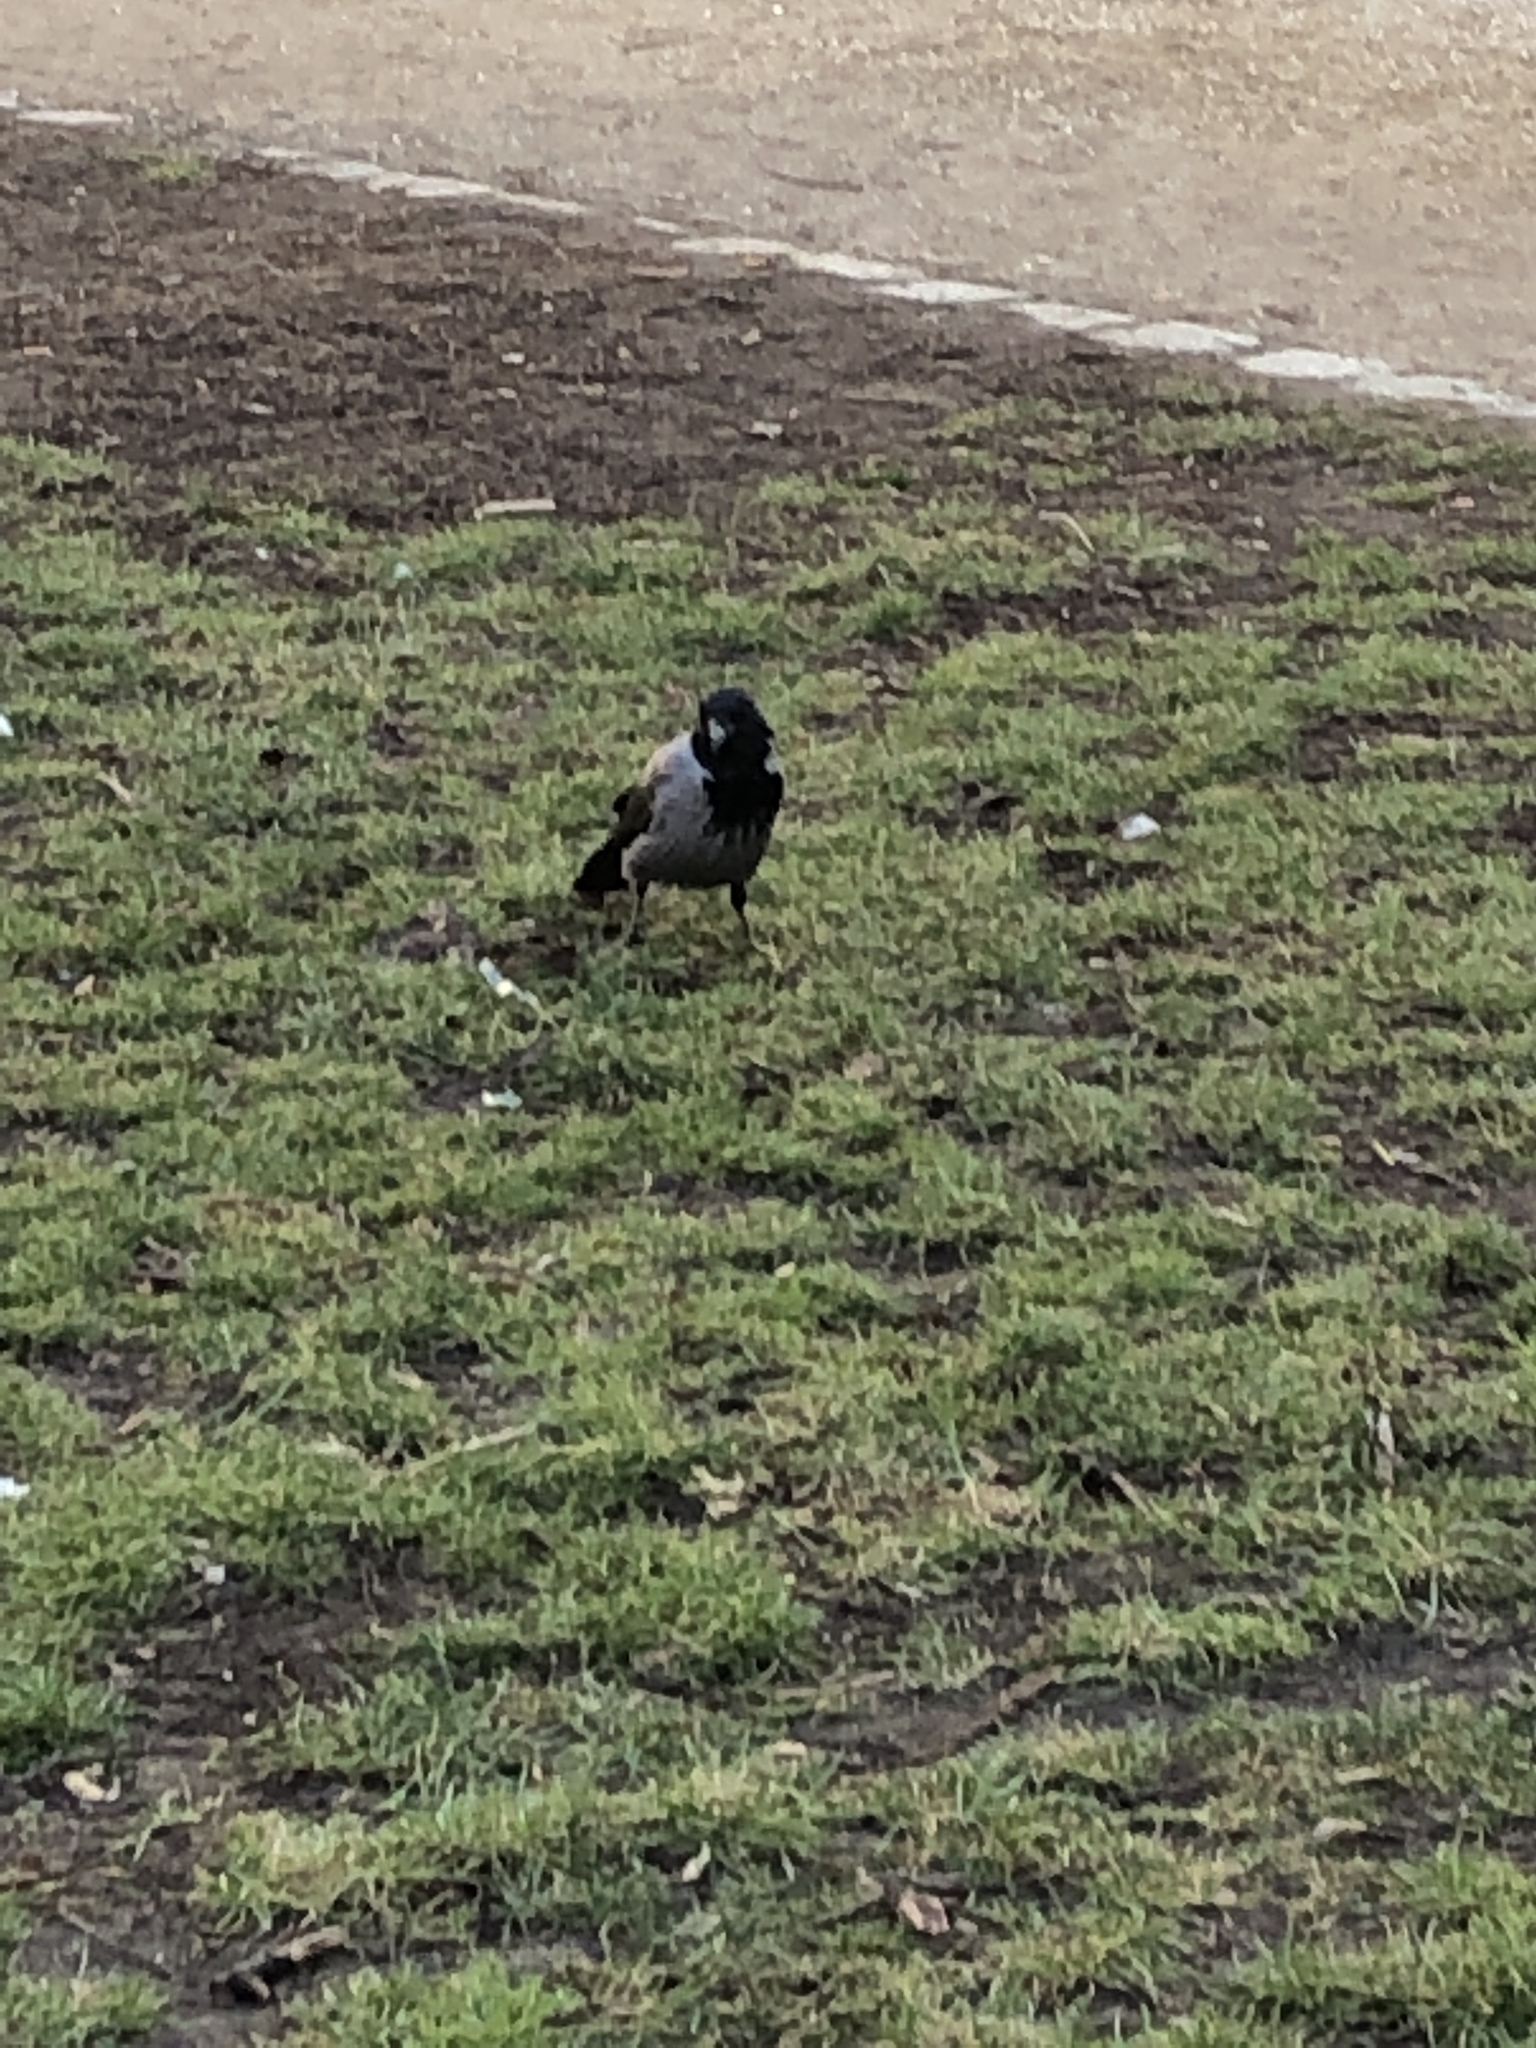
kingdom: Animalia
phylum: Chordata
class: Aves
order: Passeriformes
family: Corvidae
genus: Corvus
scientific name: Corvus cornix
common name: Hooded crow
